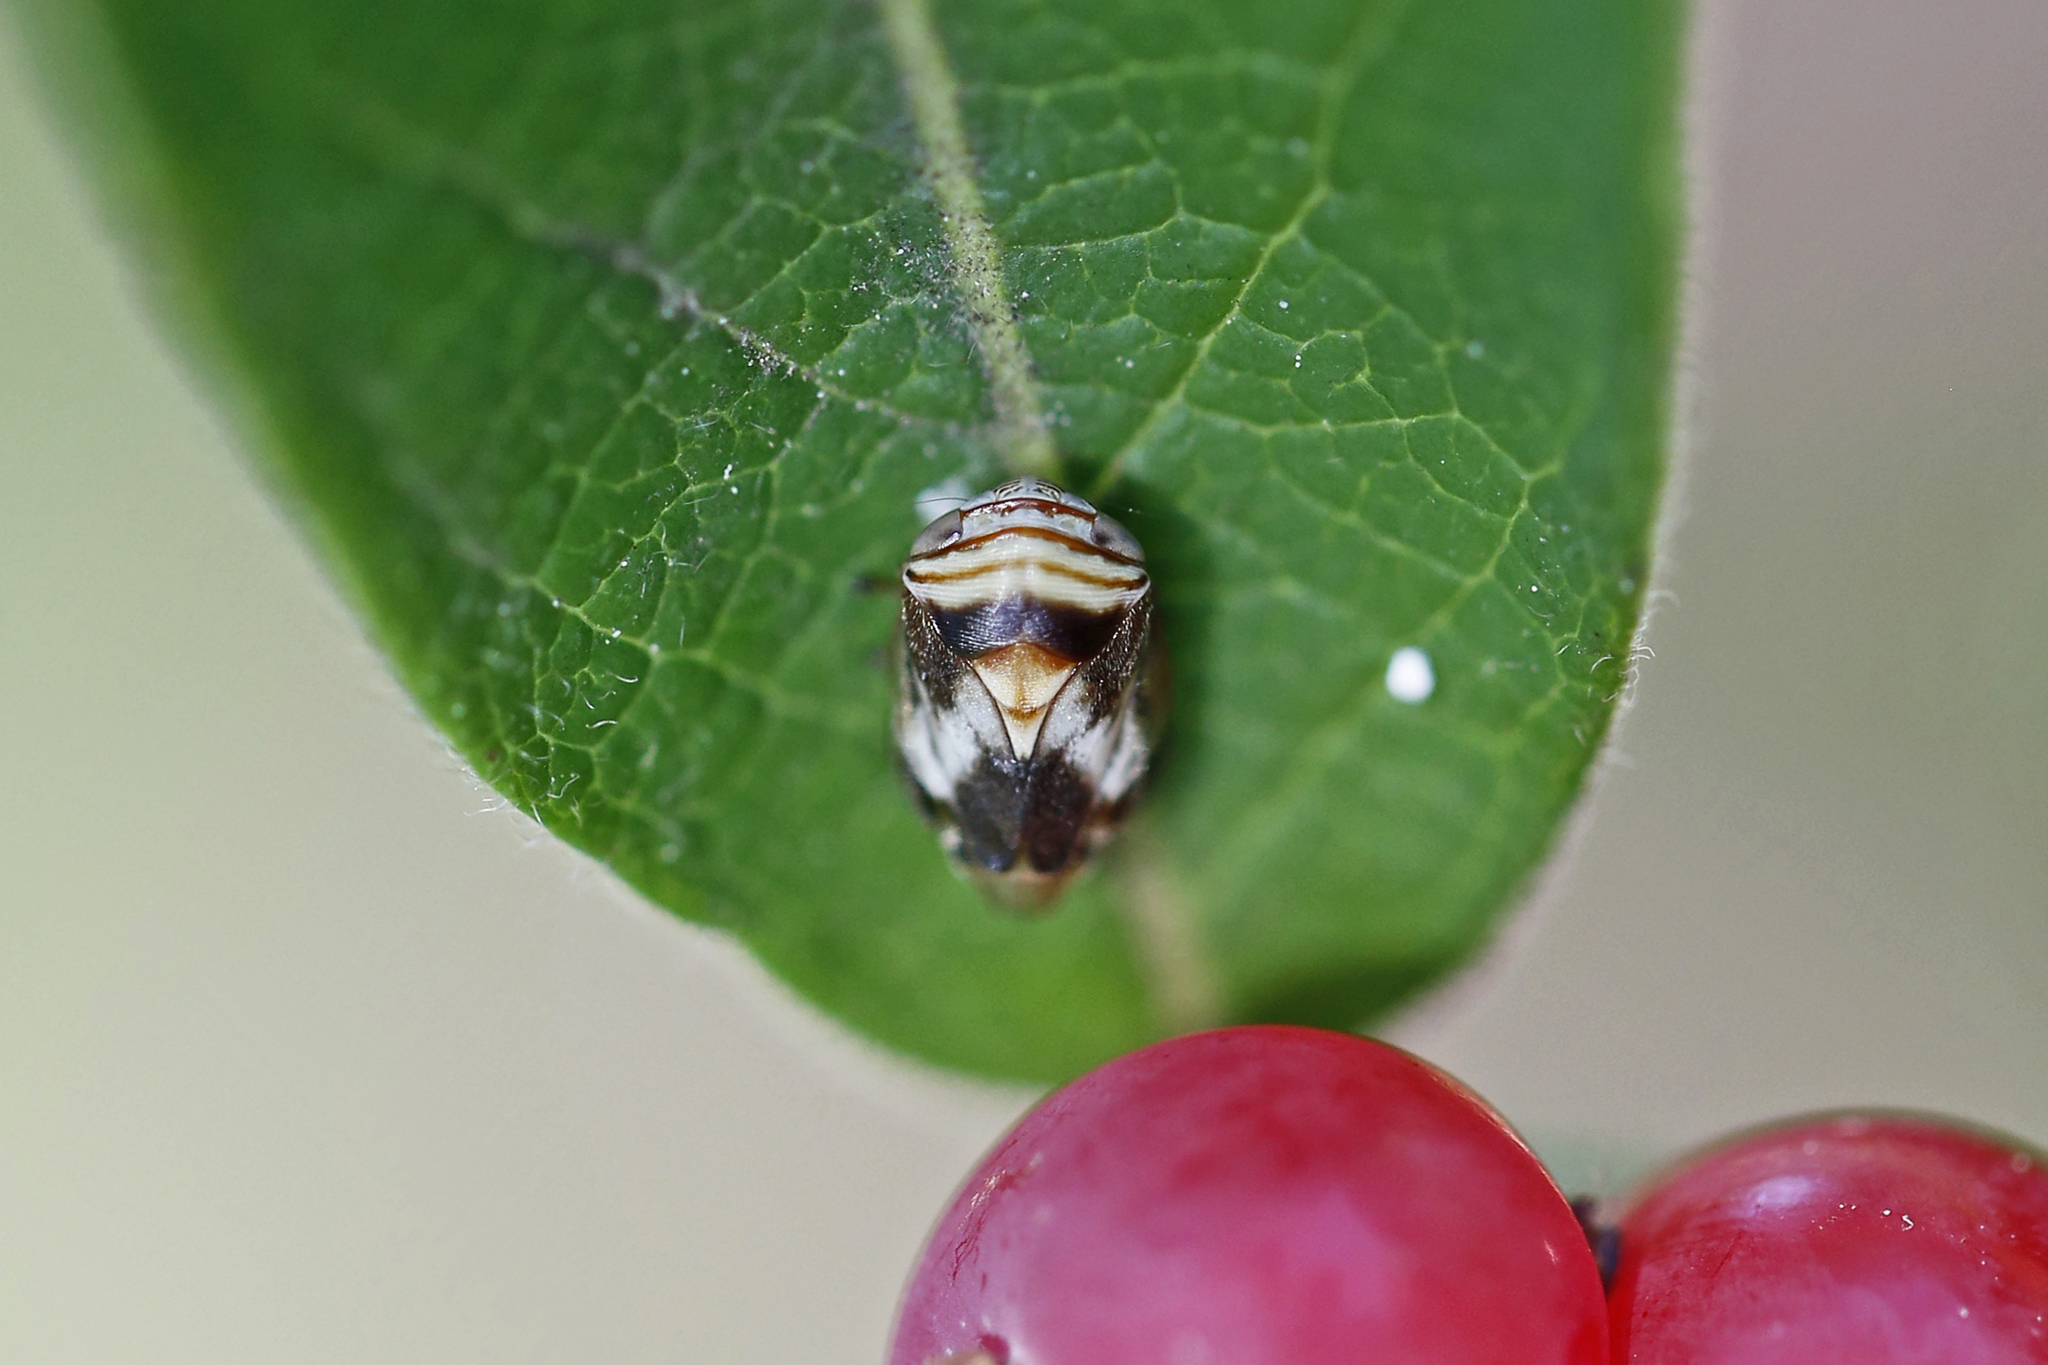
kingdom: Animalia
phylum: Arthropoda
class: Insecta
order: Hemiptera
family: Clastopteridae
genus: Clastoptera
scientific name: Clastoptera obtusa
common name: Alder spittlebug
